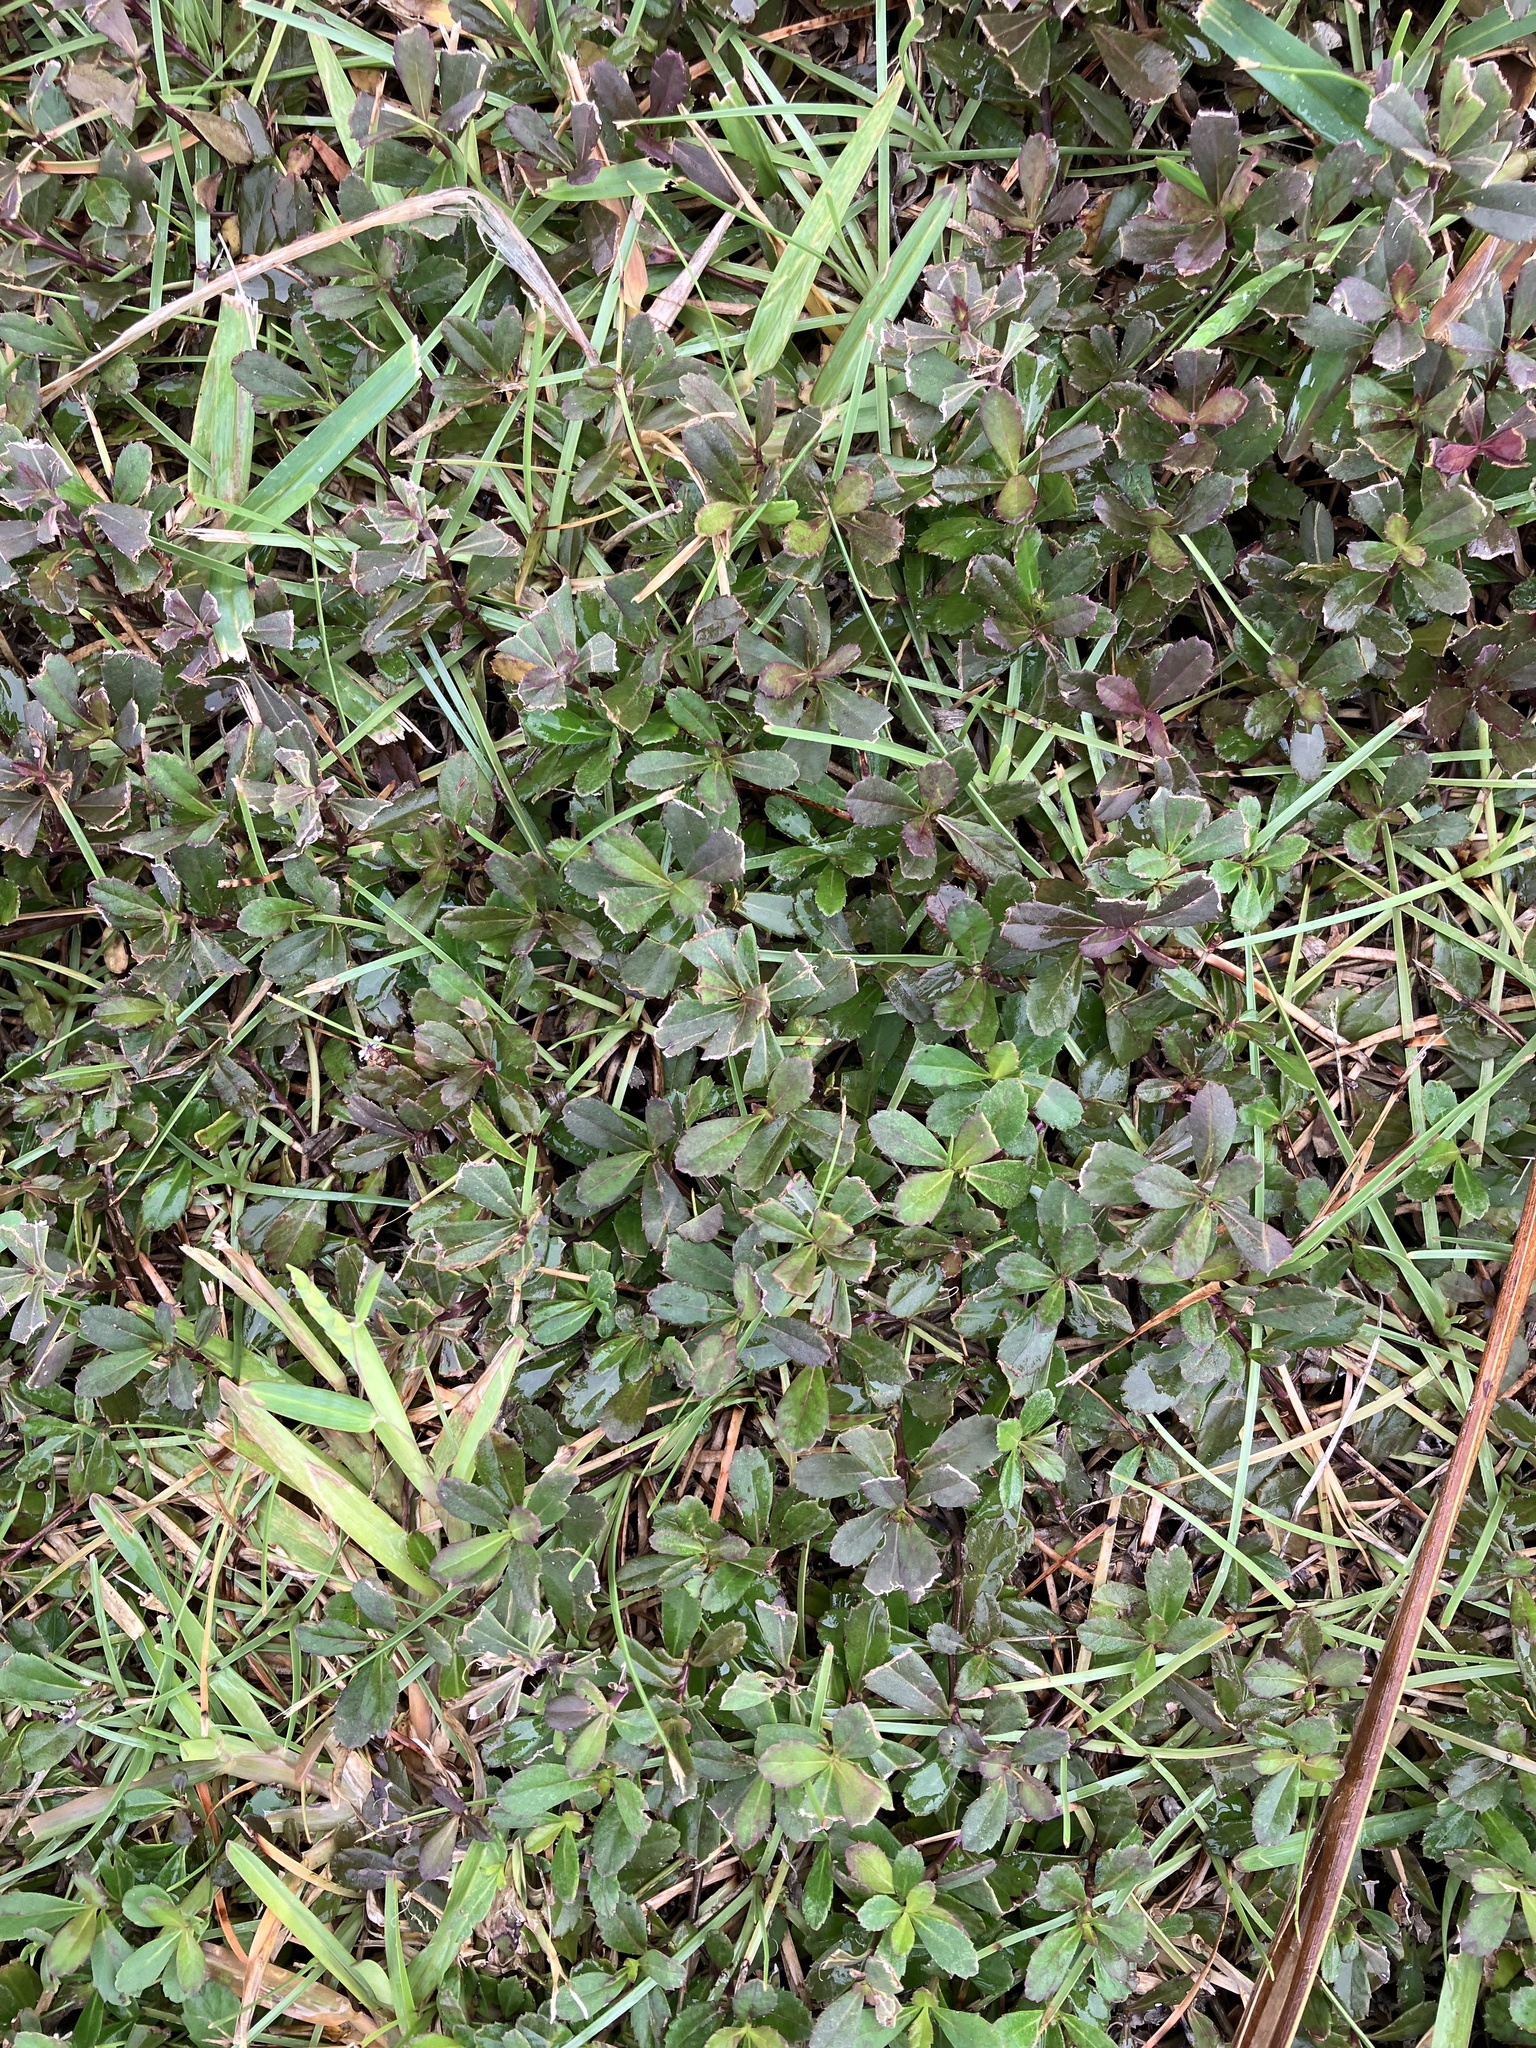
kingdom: Plantae
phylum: Tracheophyta
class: Magnoliopsida
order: Lamiales
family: Verbenaceae
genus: Phyla
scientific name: Phyla nodiflora
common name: Frogfruit
